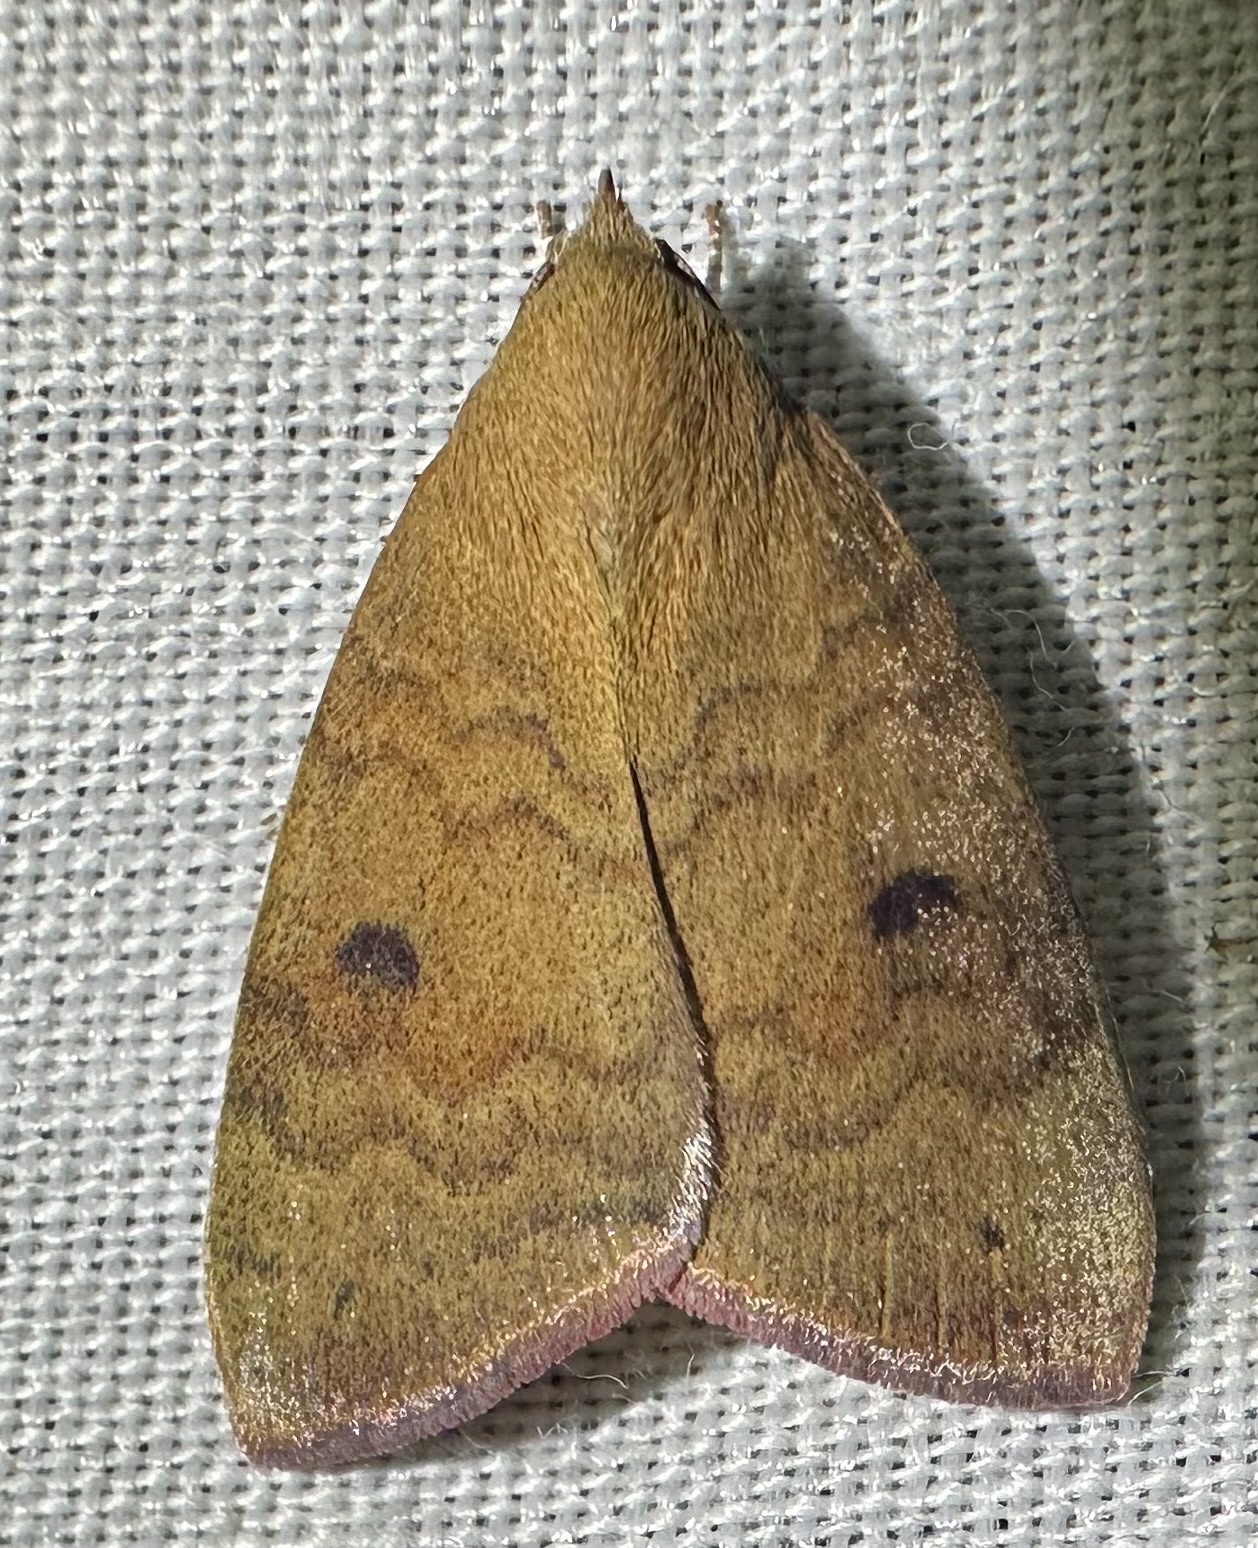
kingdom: Animalia
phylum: Arthropoda
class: Insecta
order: Lepidoptera
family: Nolidae
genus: Maurilia
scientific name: Maurilia arcuata
